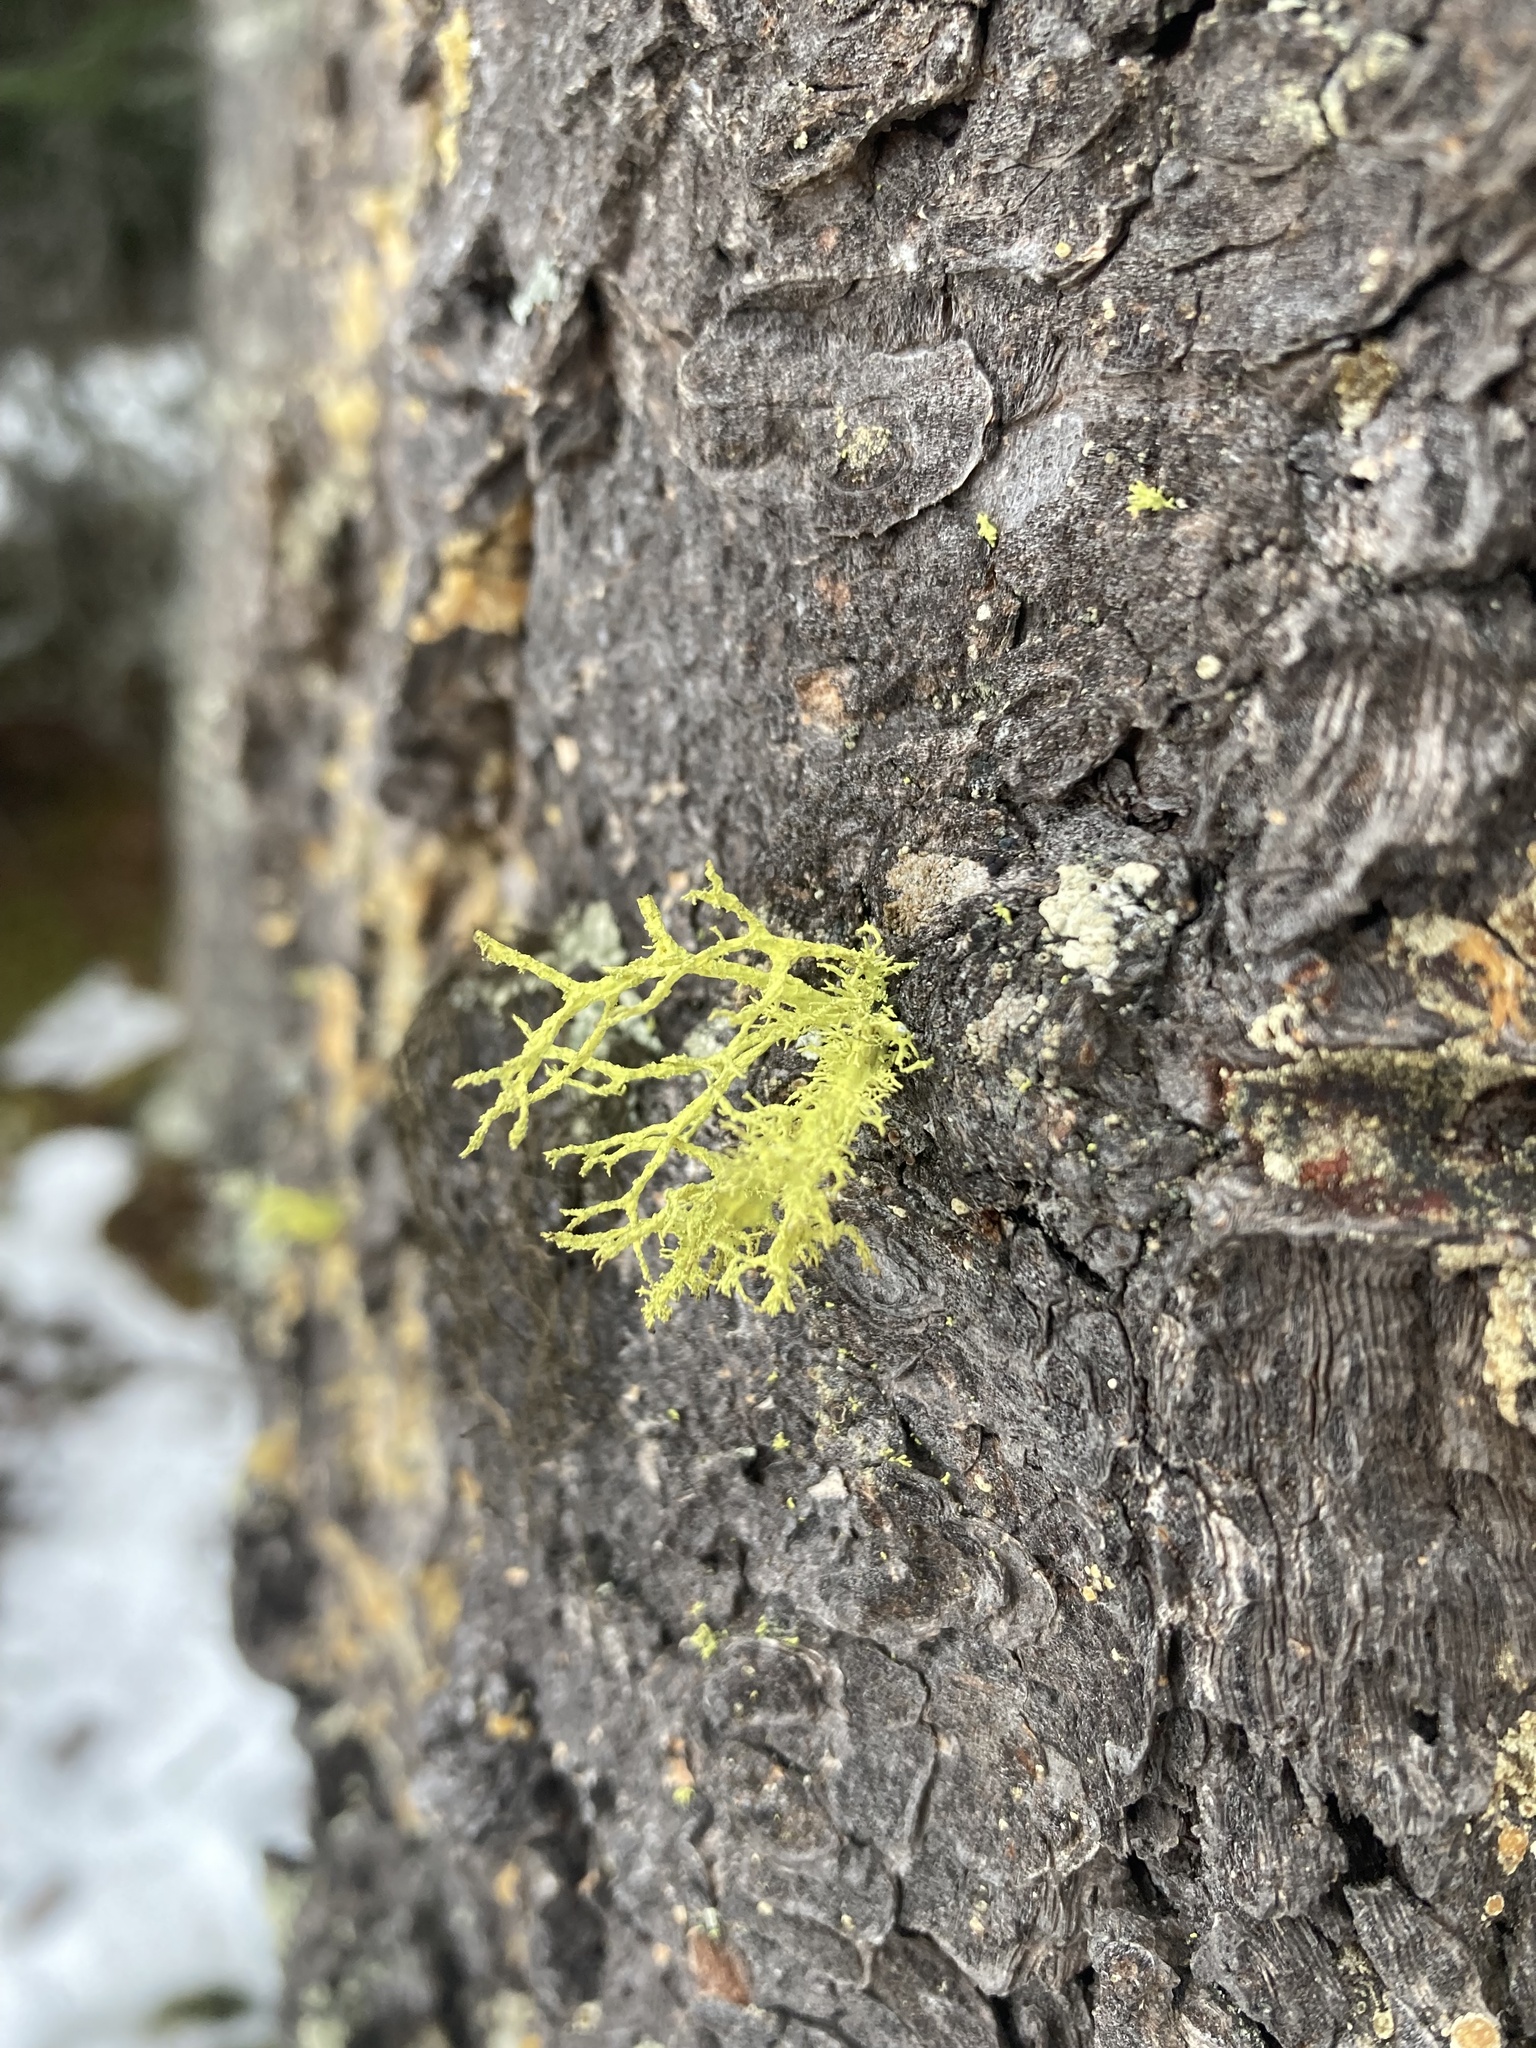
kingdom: Fungi
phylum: Ascomycota
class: Lecanoromycetes
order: Lecanorales
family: Parmeliaceae
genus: Letharia
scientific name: Letharia vulpina
